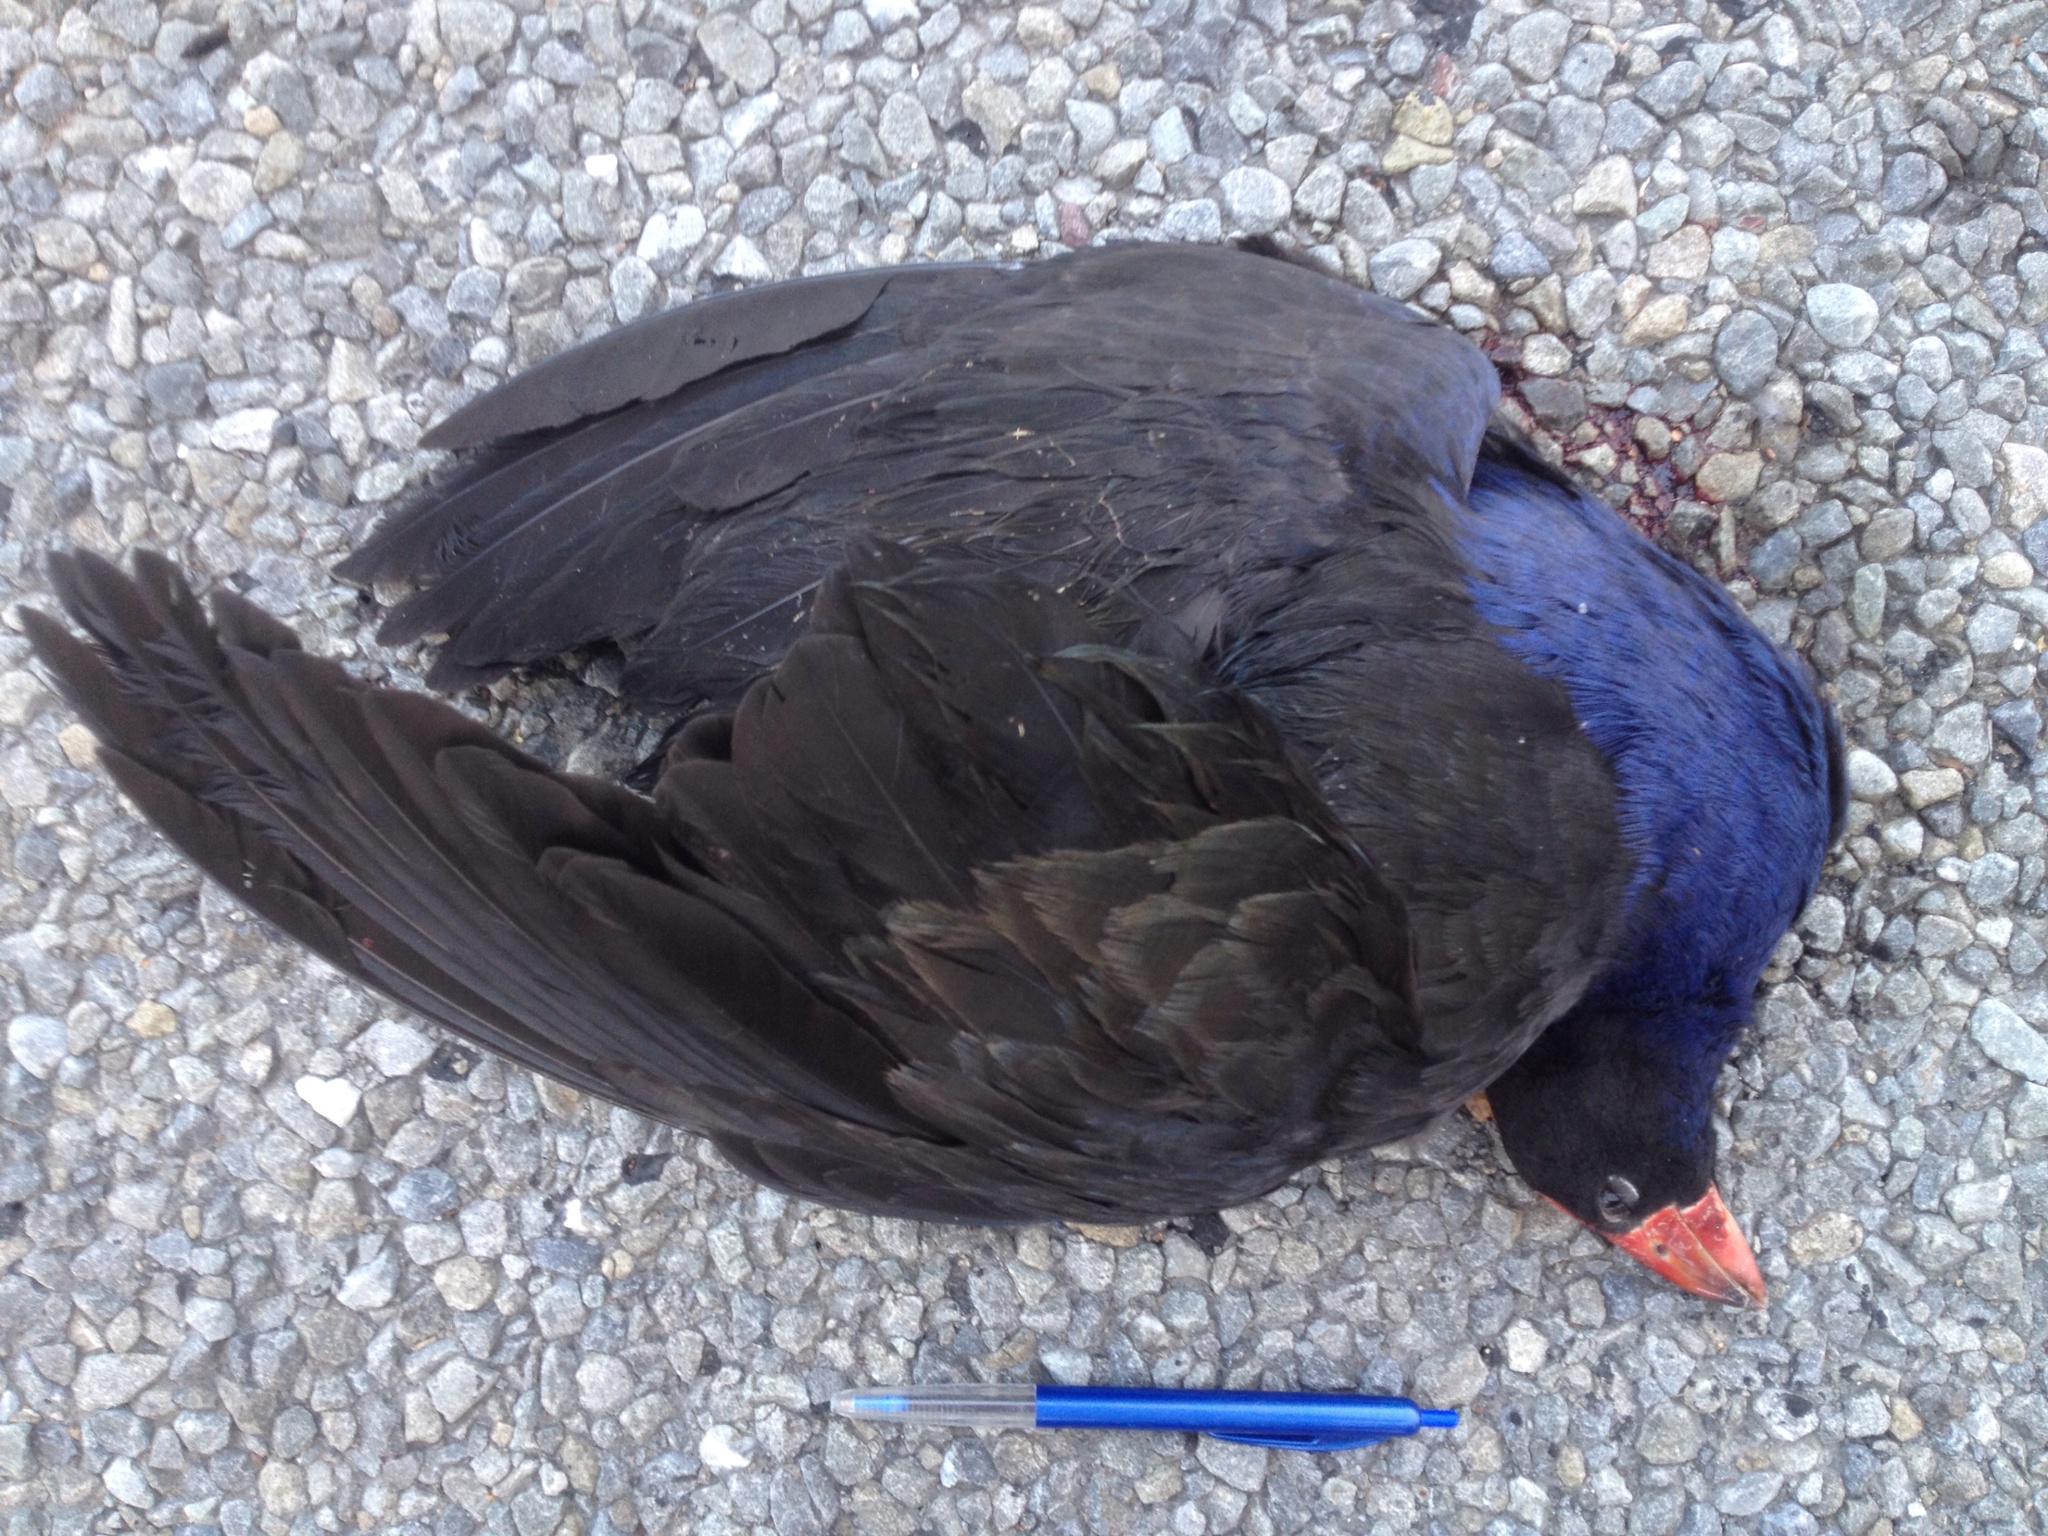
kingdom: Animalia
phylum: Chordata
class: Aves
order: Gruiformes
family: Rallidae
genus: Porphyrio
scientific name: Porphyrio melanotus
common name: Australasian swamphen
